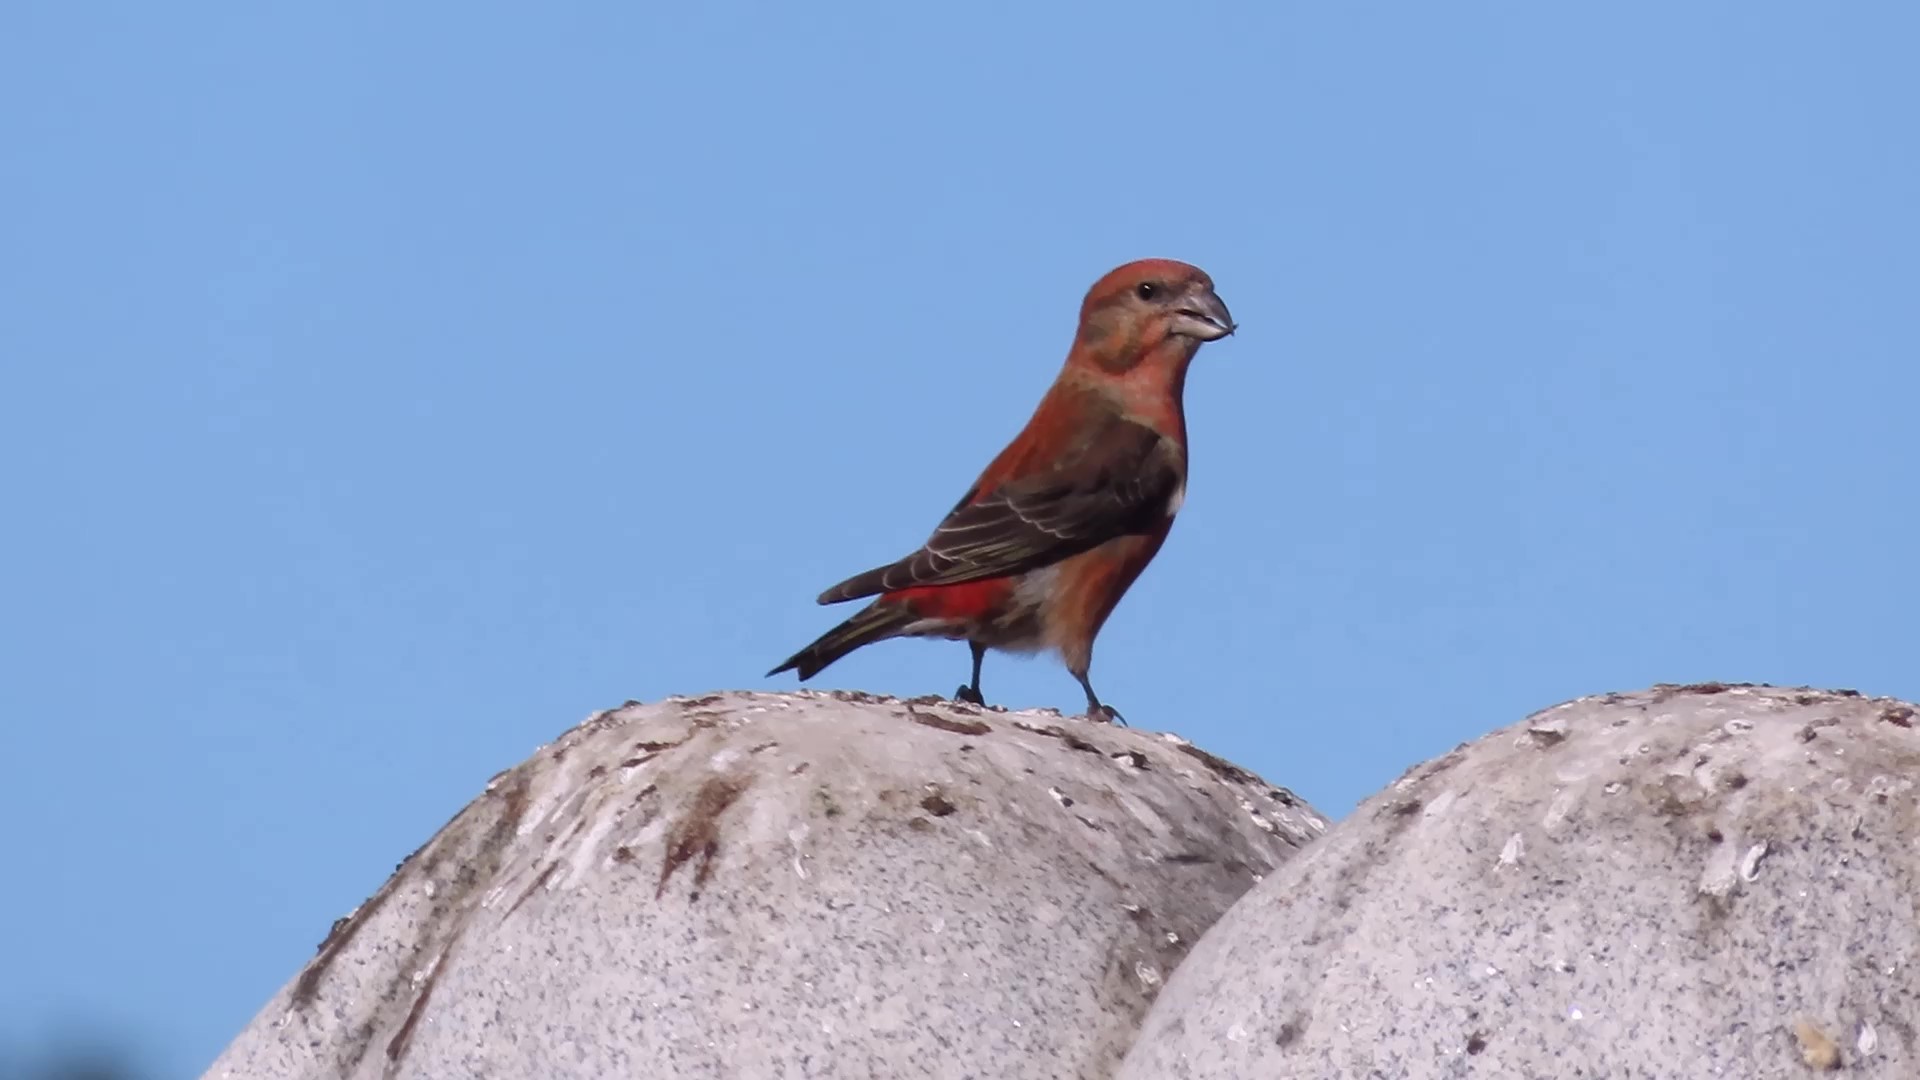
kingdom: Animalia
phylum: Chordata
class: Aves
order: Passeriformes
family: Fringillidae
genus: Loxia
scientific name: Loxia curvirostra
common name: Red crossbill
